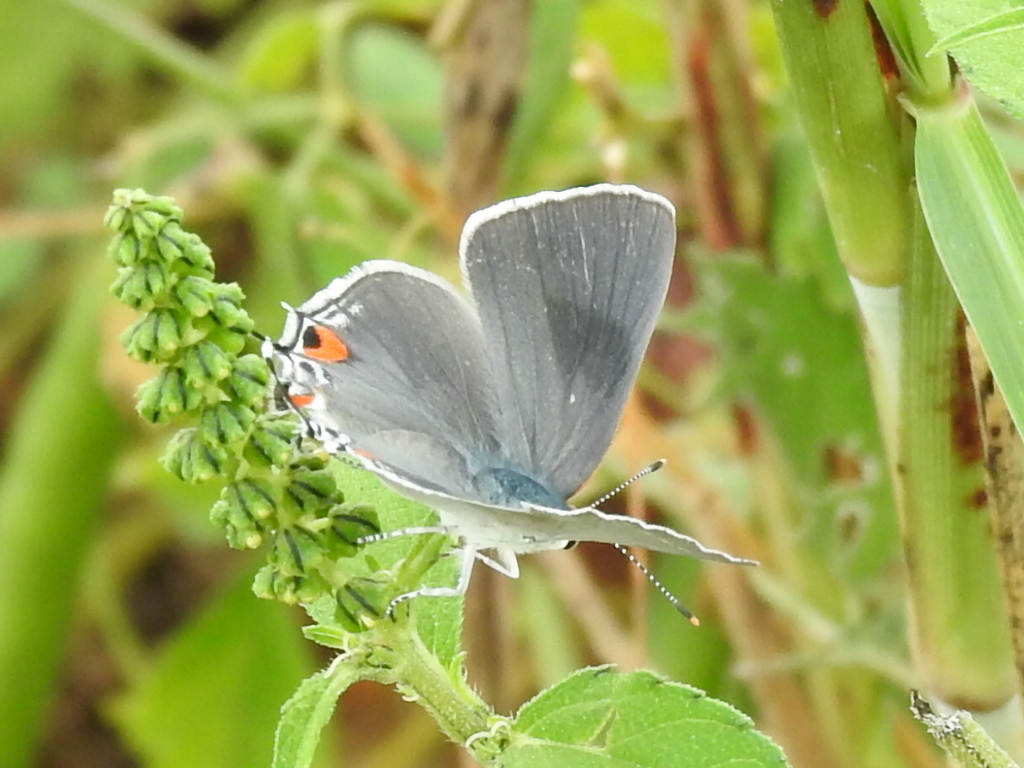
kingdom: Animalia
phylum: Arthropoda
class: Insecta
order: Lepidoptera
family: Lycaenidae
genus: Strymon
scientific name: Strymon melinus
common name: Gray hairstreak
